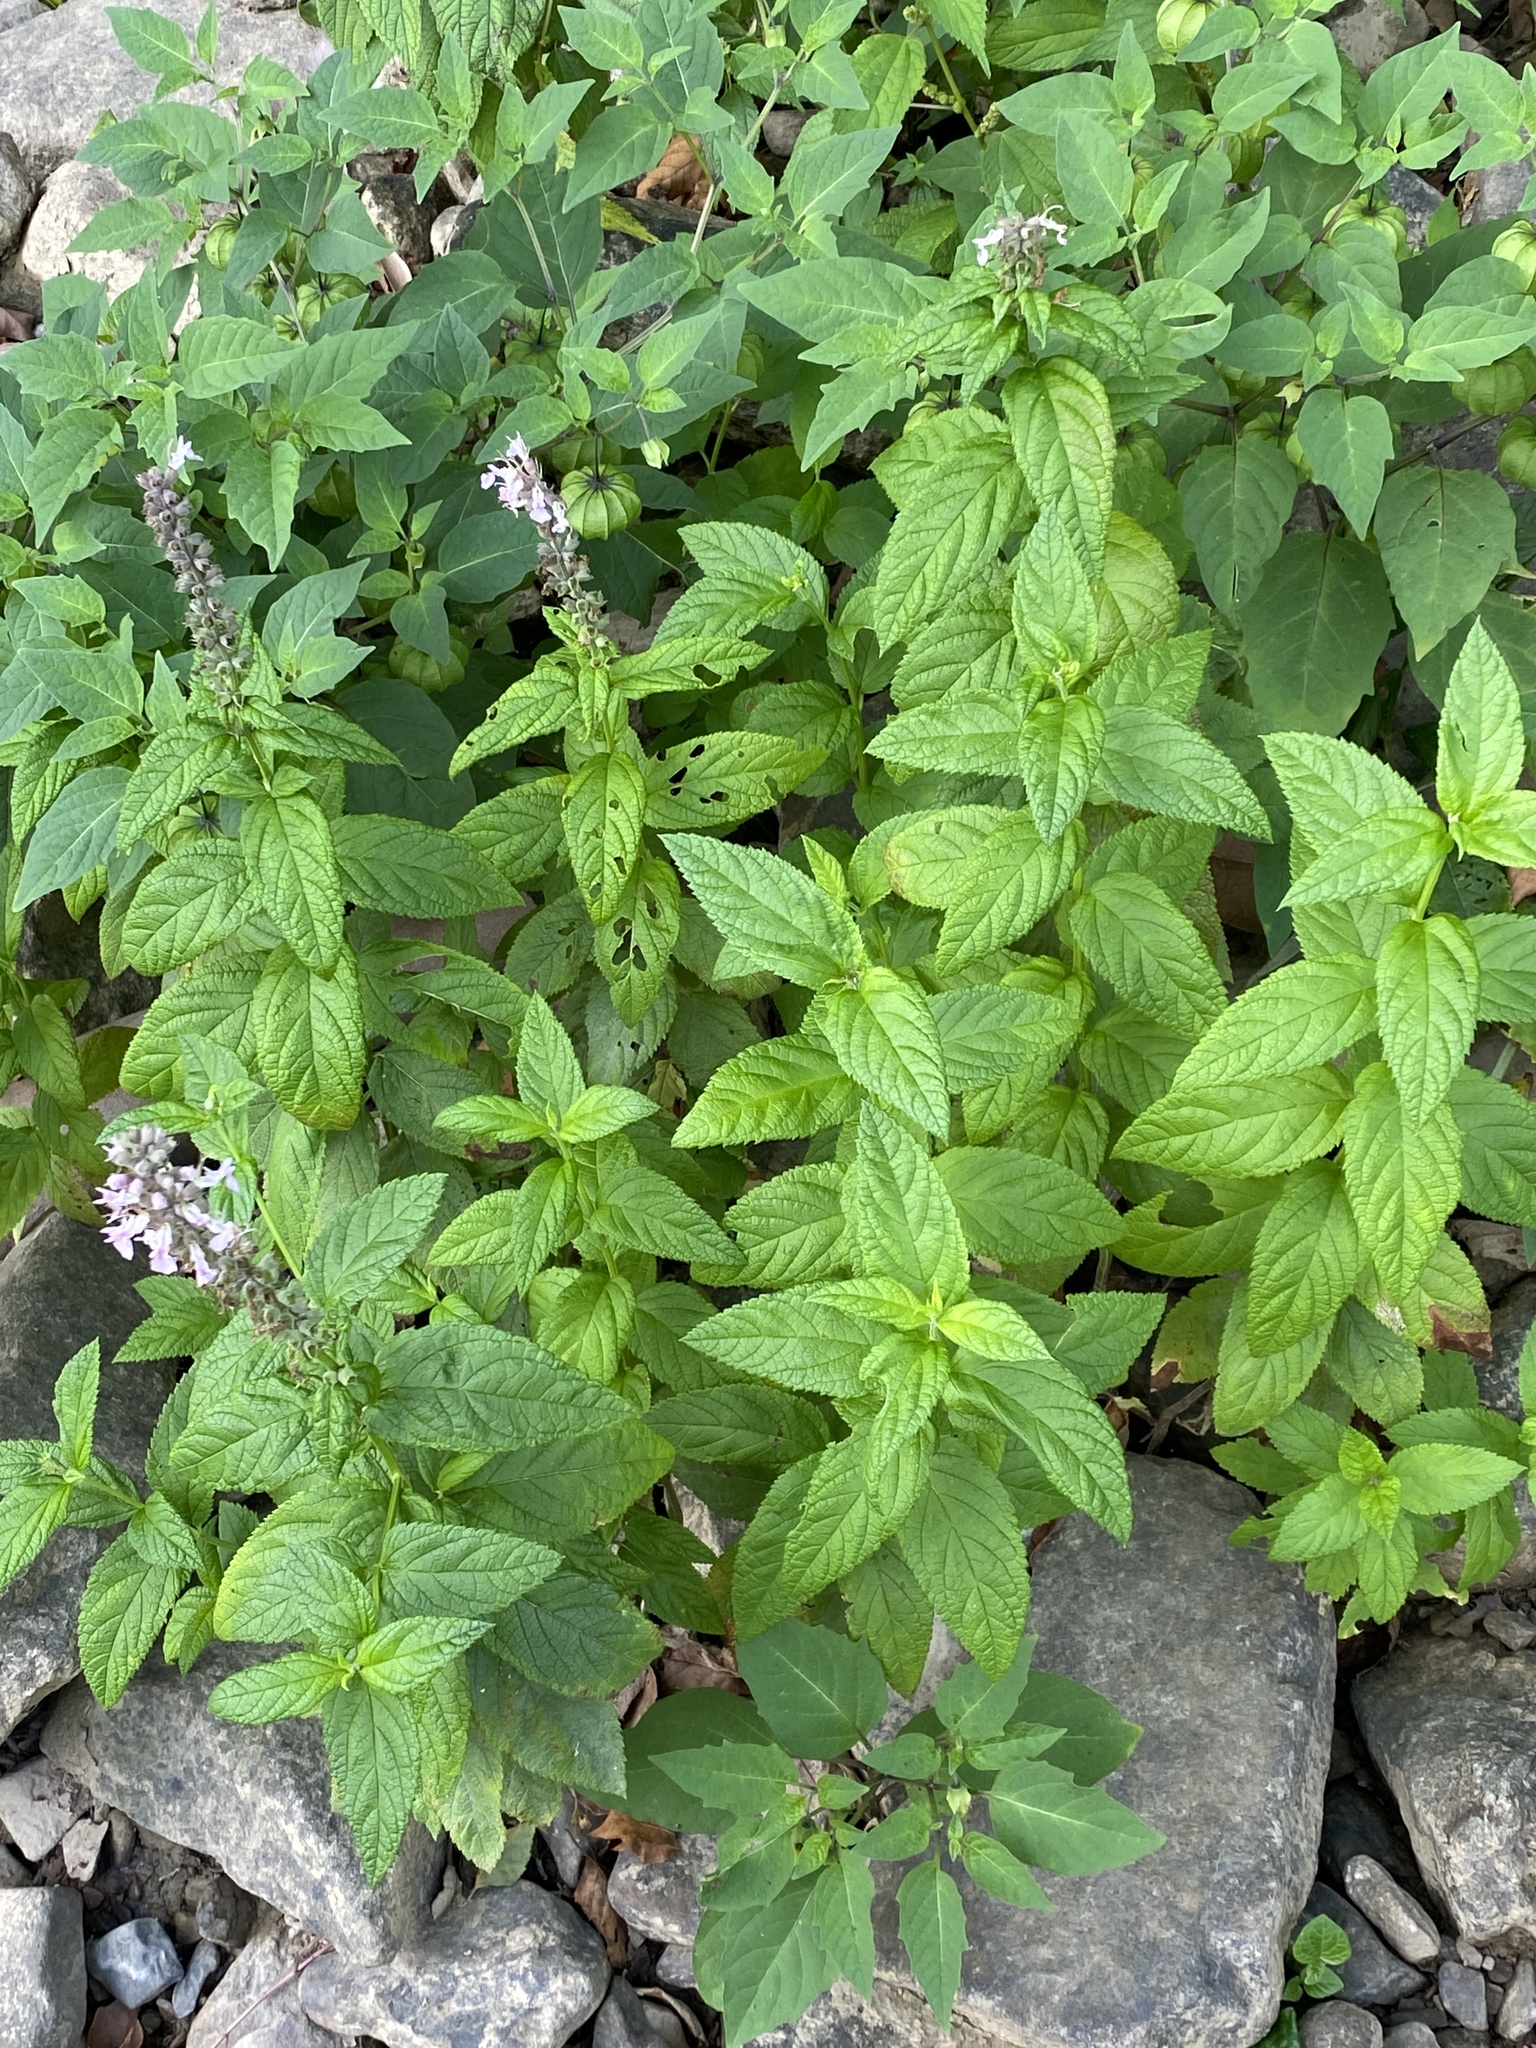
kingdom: Plantae
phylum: Tracheophyta
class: Magnoliopsida
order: Lamiales
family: Lamiaceae
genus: Teucrium
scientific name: Teucrium canadense
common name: American germander
